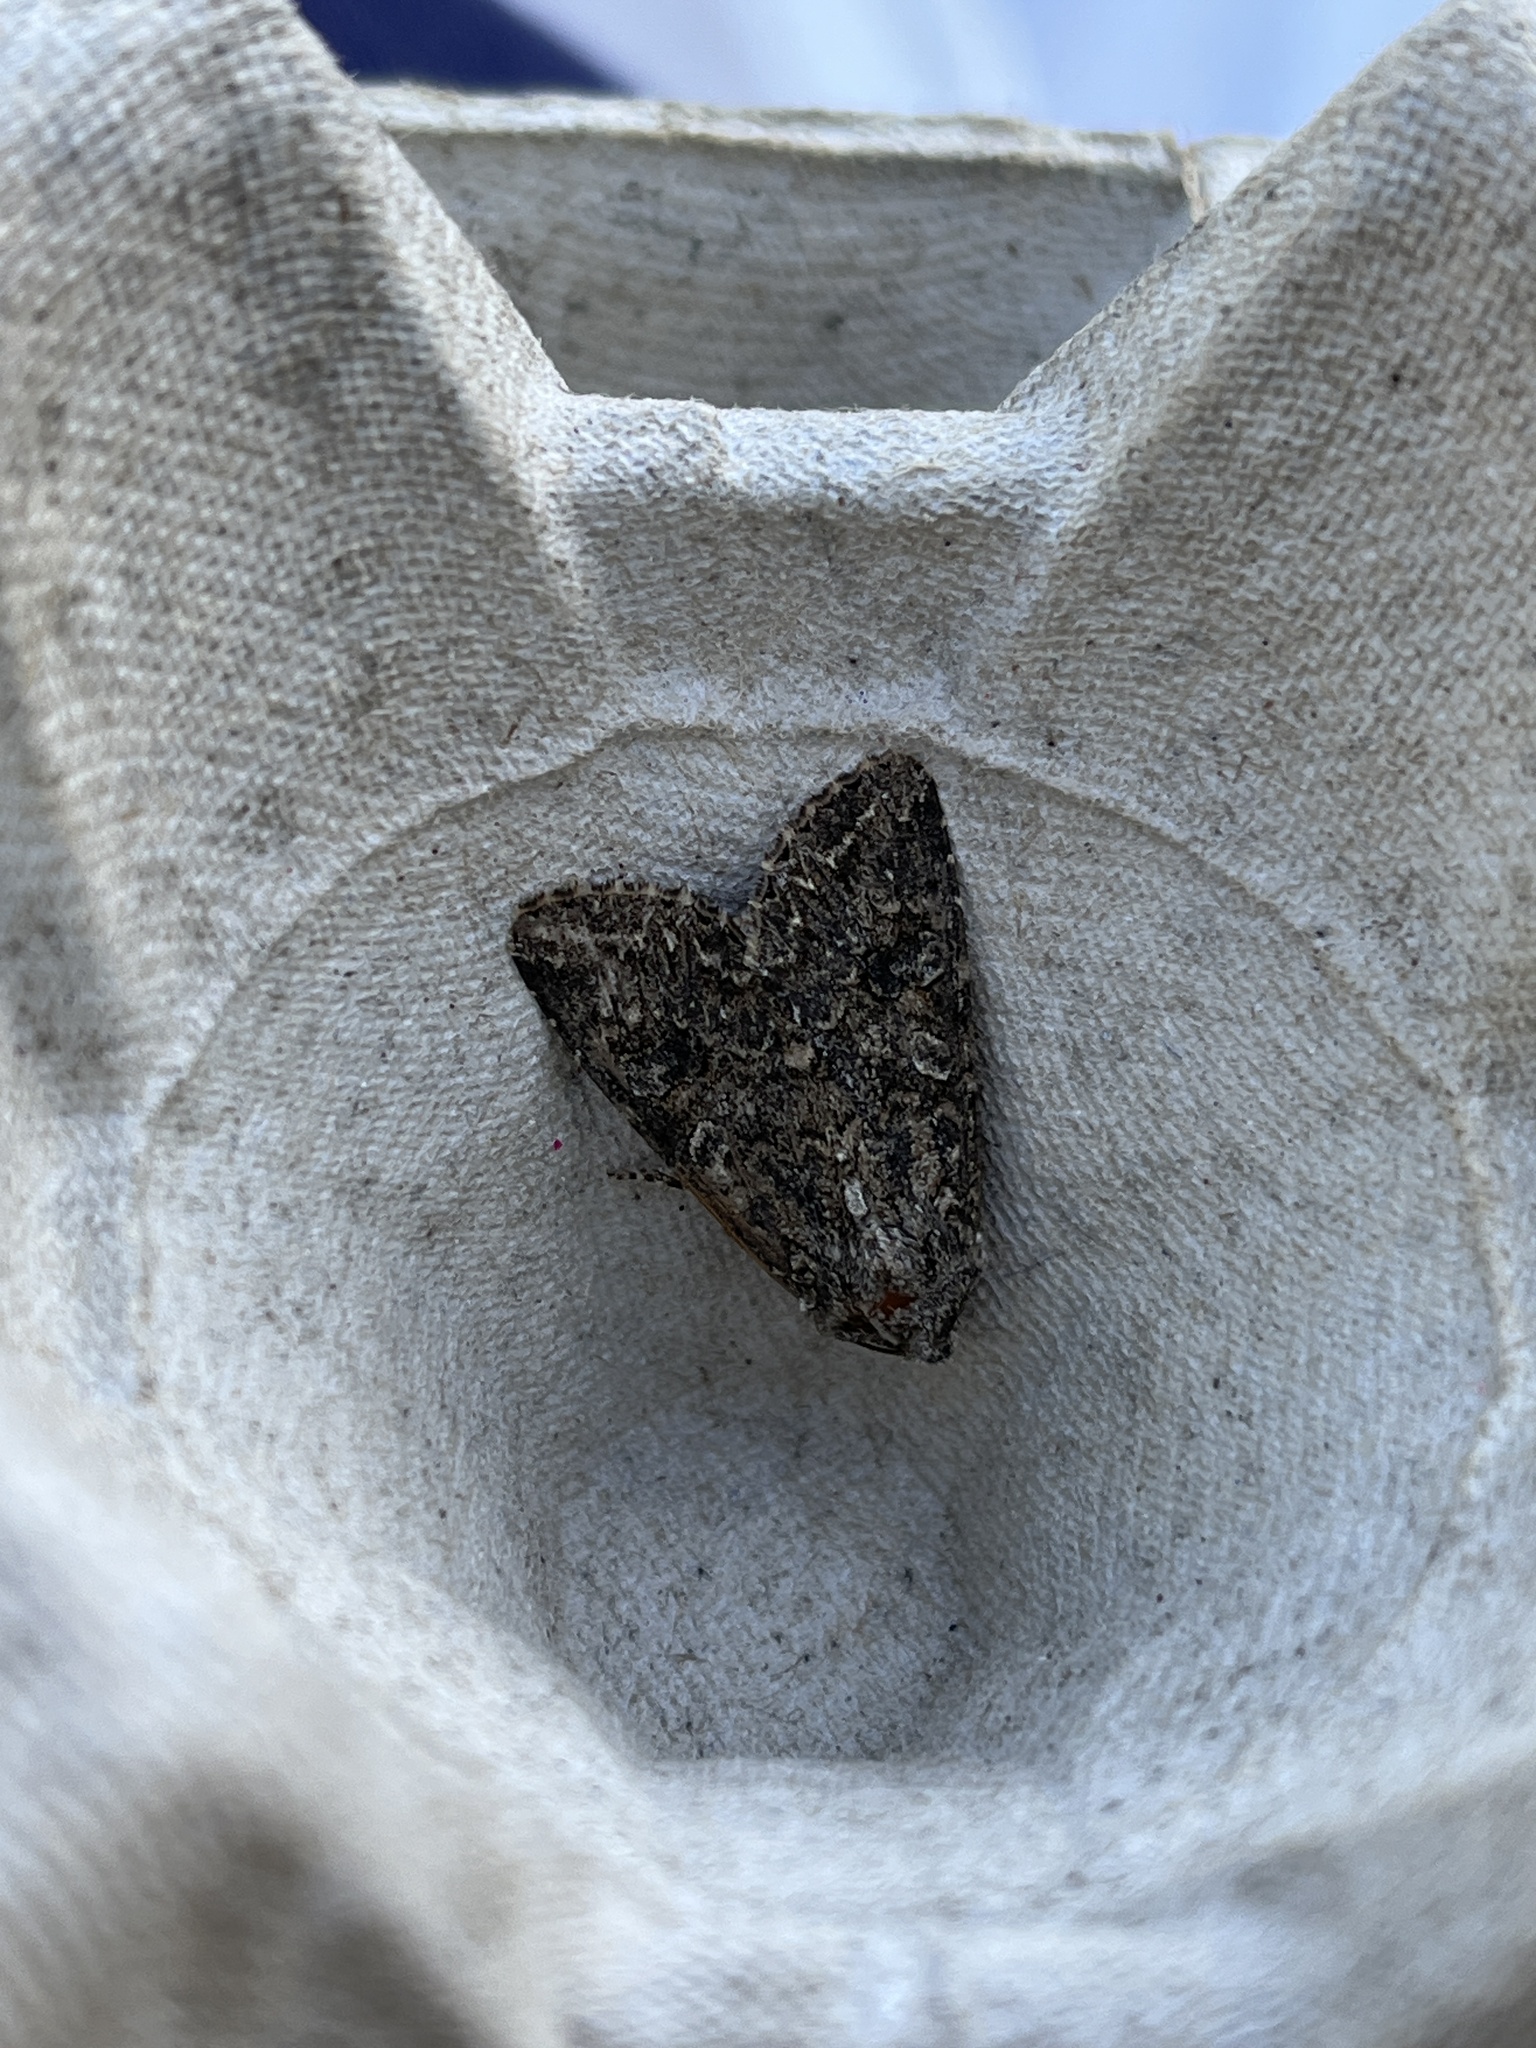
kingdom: Animalia
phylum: Arthropoda
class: Insecta
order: Lepidoptera
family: Noctuidae
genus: Anarta
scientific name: Anarta trifolii
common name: Clover cutworm moth
